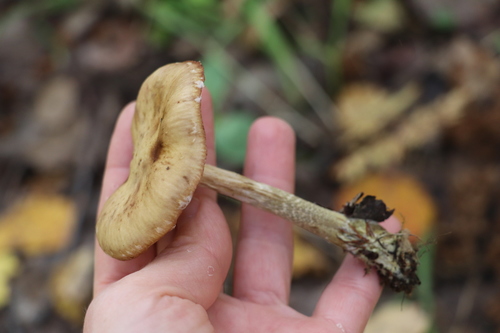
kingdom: Fungi
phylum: Basidiomycota
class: Agaricomycetes
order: Agaricales
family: Physalacriaceae
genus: Armillaria
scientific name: Armillaria cepistipes
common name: Mullet honey fungus
